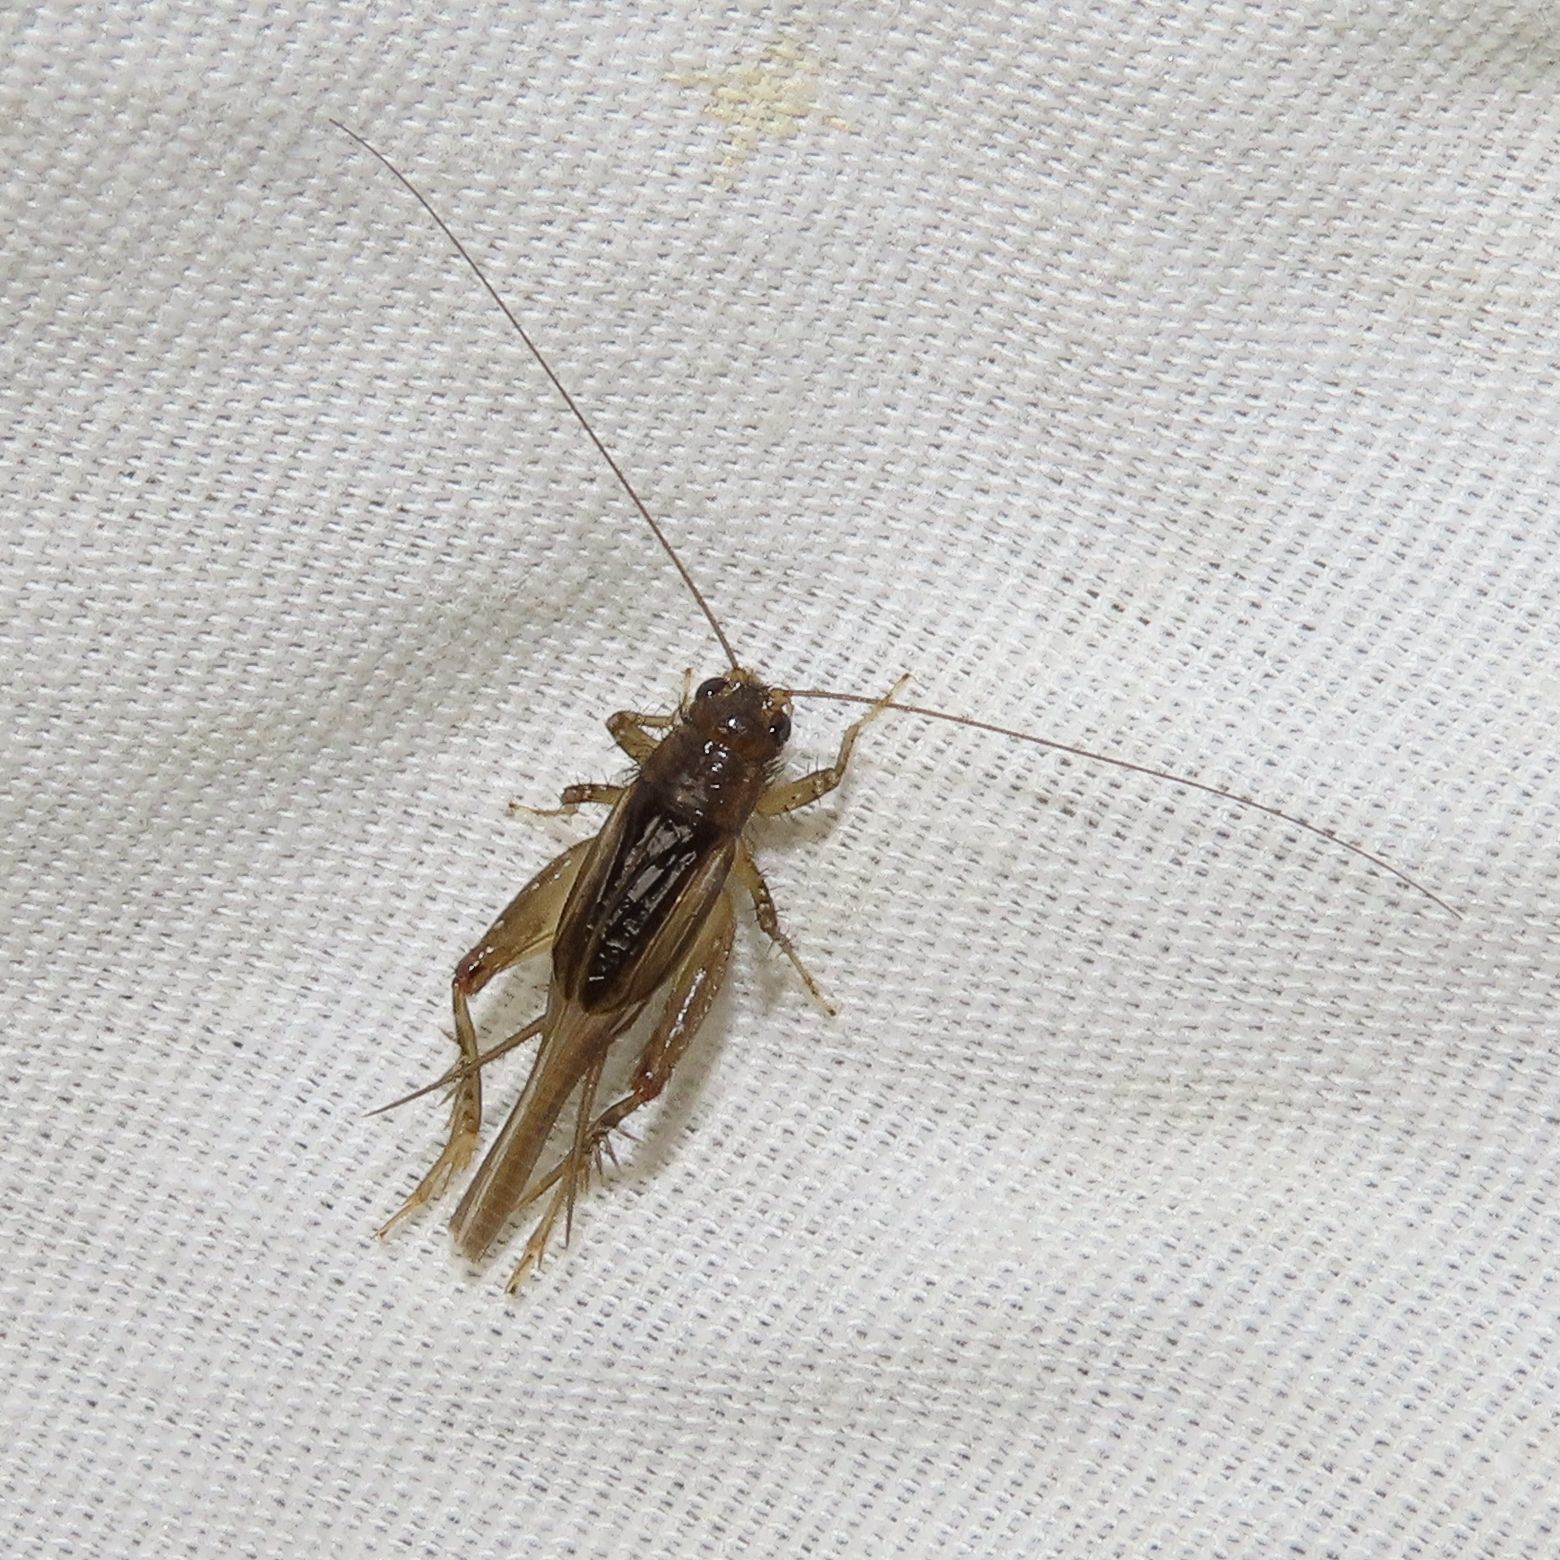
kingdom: Animalia
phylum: Arthropoda
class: Insecta
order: Orthoptera
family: Trigonidiidae
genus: Eunemobius
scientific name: Eunemobius carolinus
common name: Carolina ground cricket
